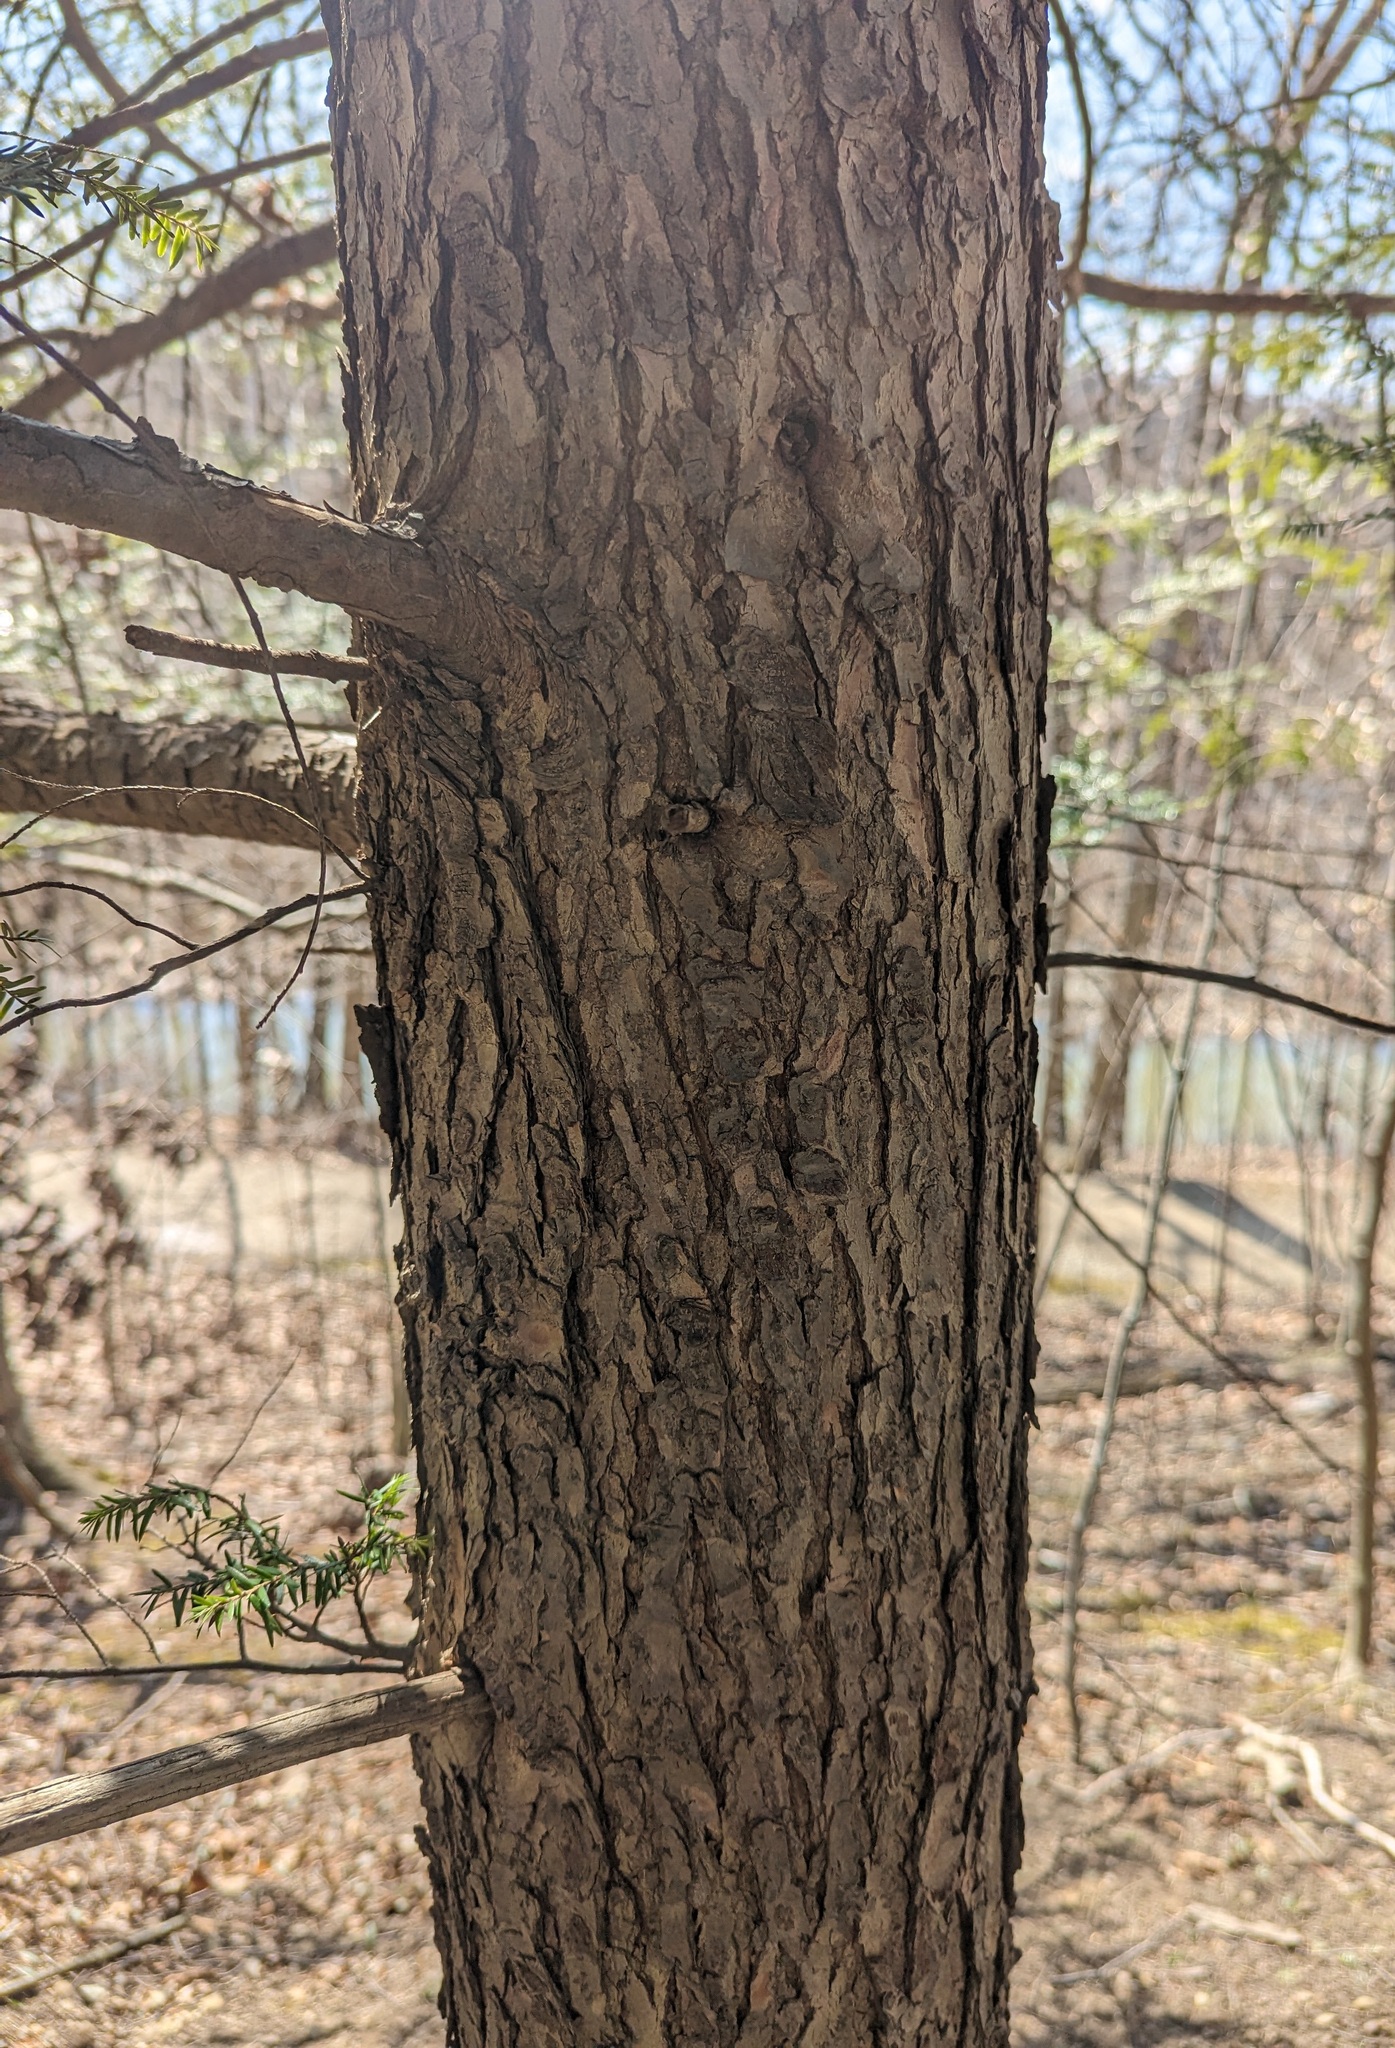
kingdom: Plantae
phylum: Tracheophyta
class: Pinopsida
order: Pinales
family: Pinaceae
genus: Tsuga
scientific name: Tsuga canadensis
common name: Eastern hemlock
